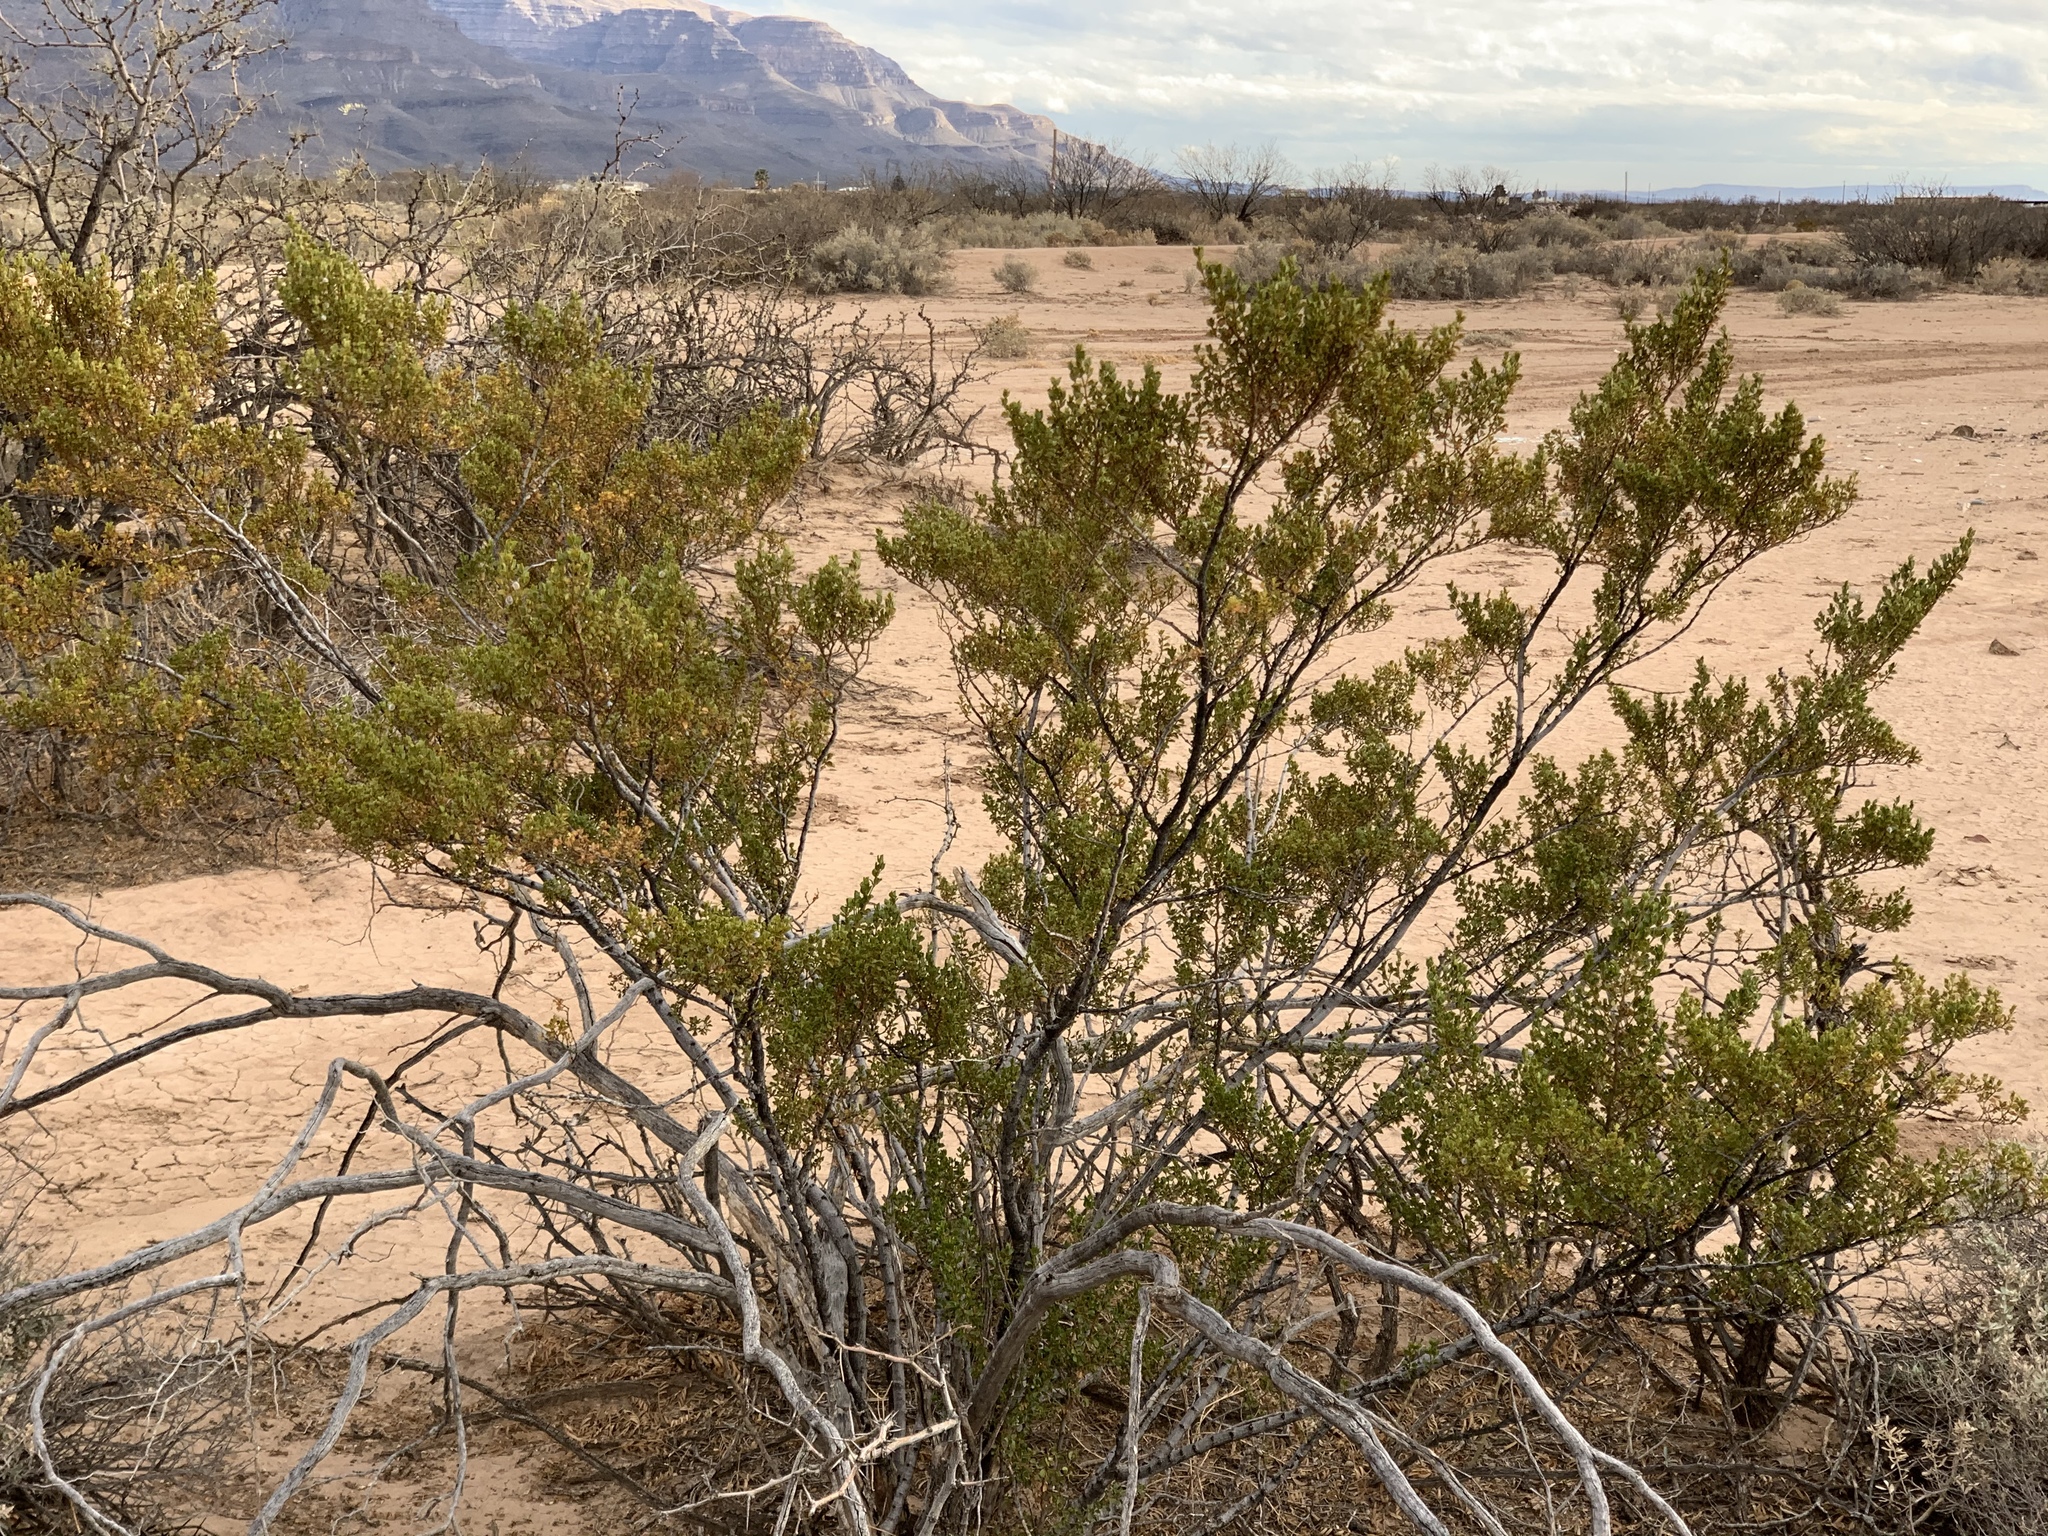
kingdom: Plantae
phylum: Tracheophyta
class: Magnoliopsida
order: Zygophyllales
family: Zygophyllaceae
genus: Larrea
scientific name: Larrea tridentata
